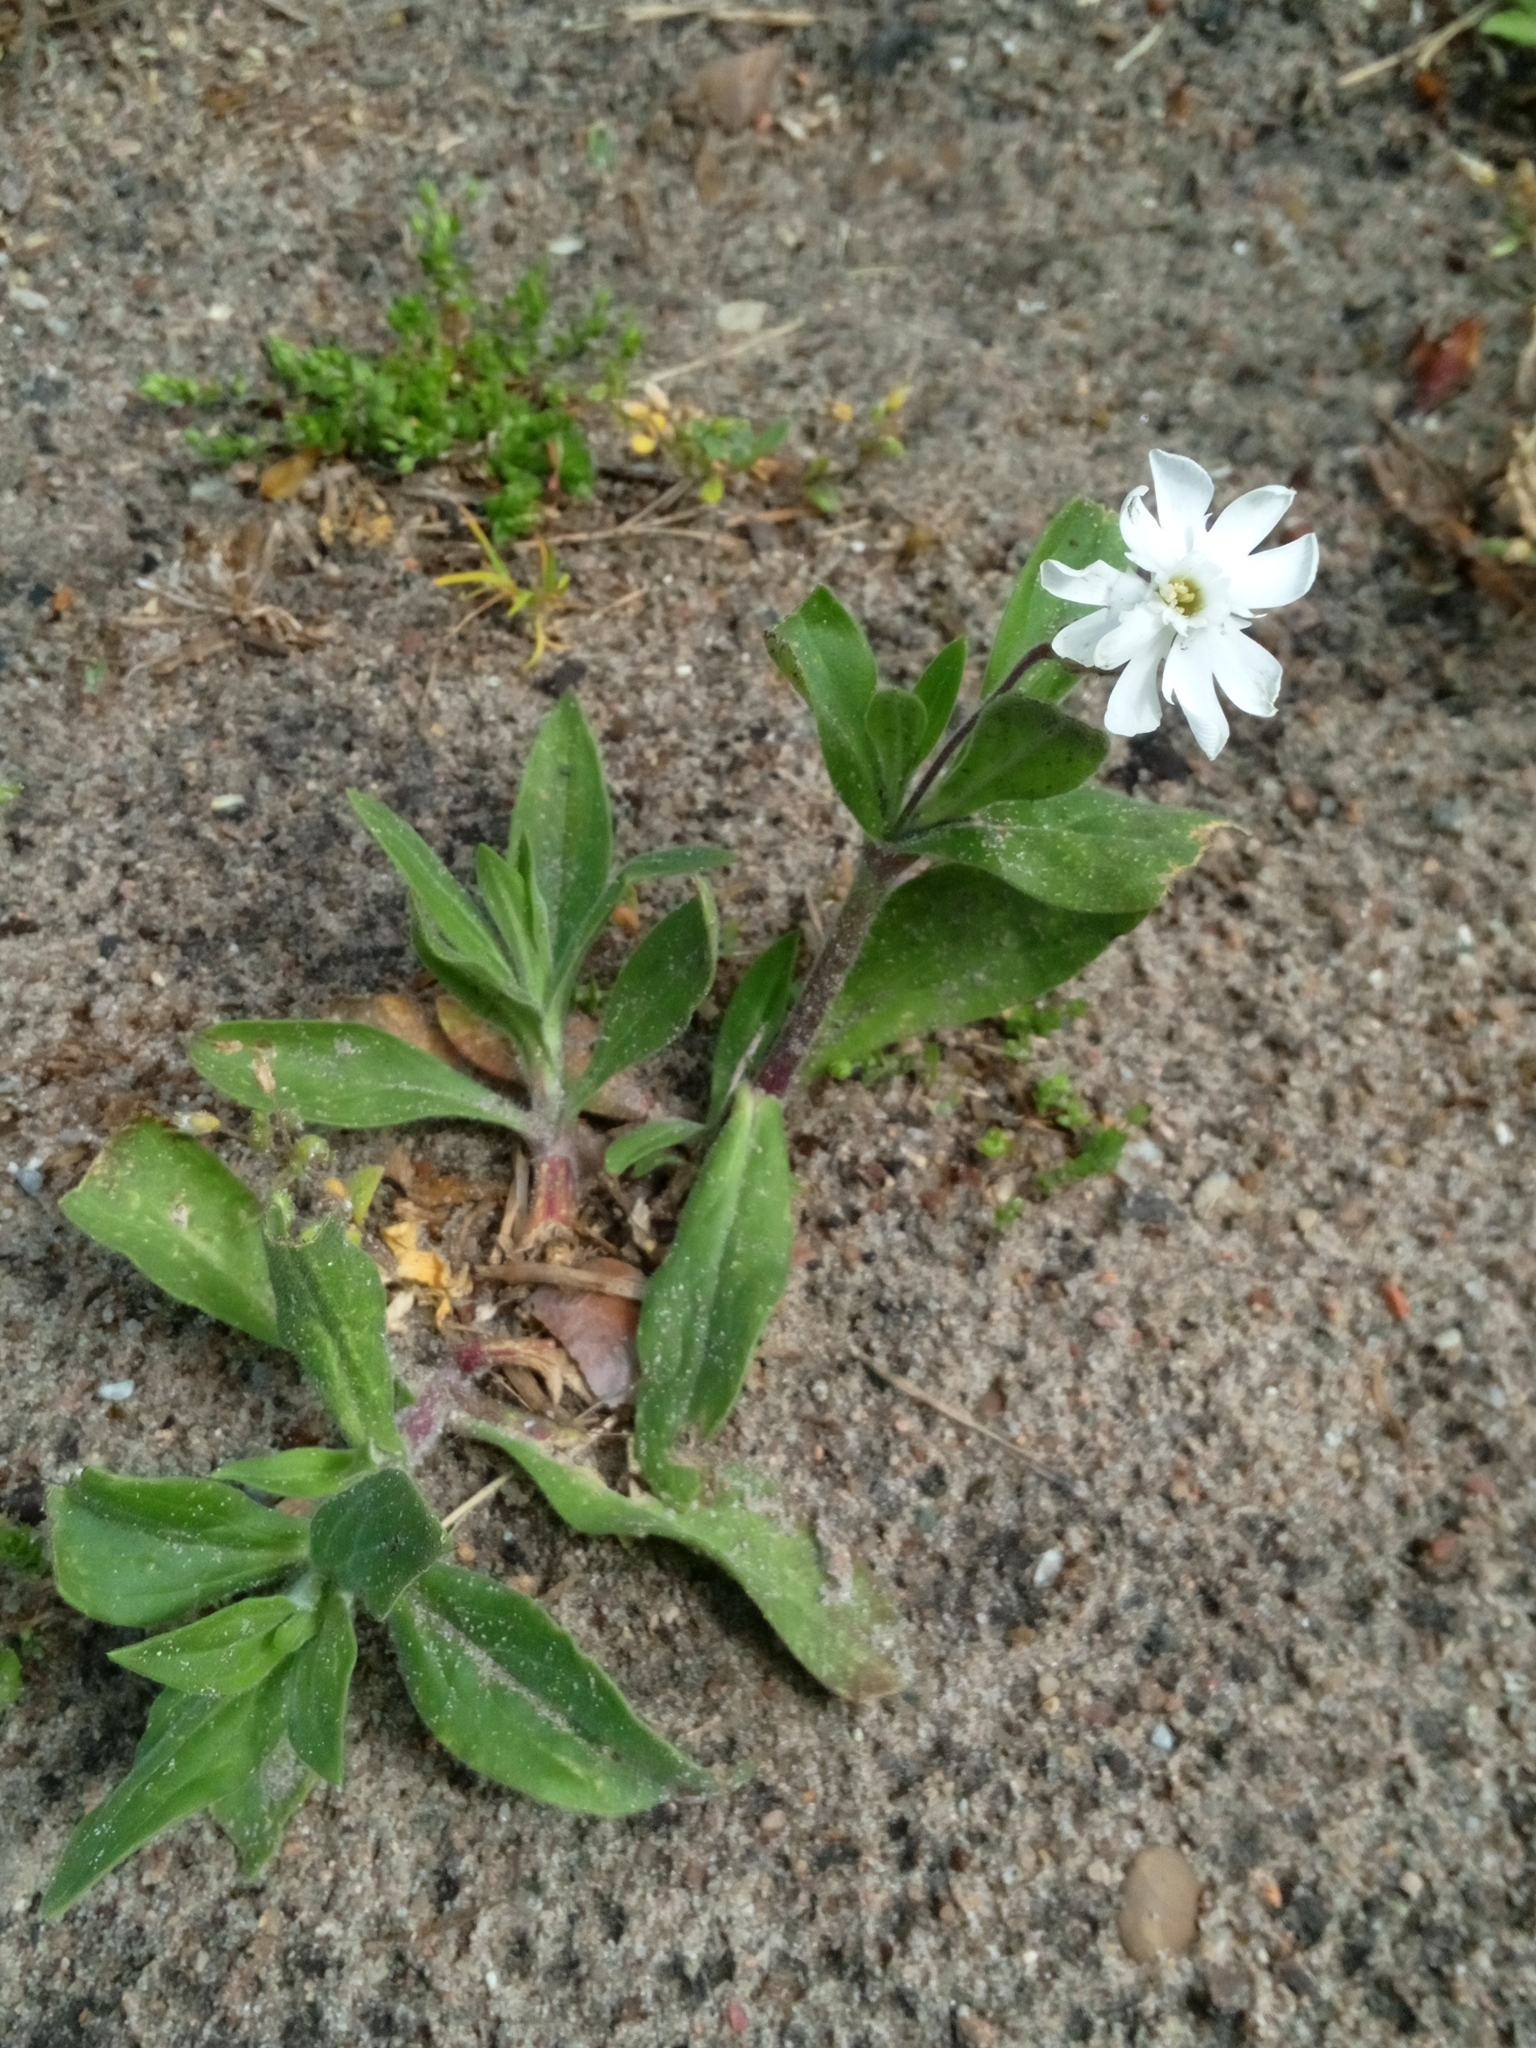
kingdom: Plantae
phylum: Tracheophyta
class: Magnoliopsida
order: Caryophyllales
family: Caryophyllaceae
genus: Silene
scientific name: Silene latifolia
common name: White campion
